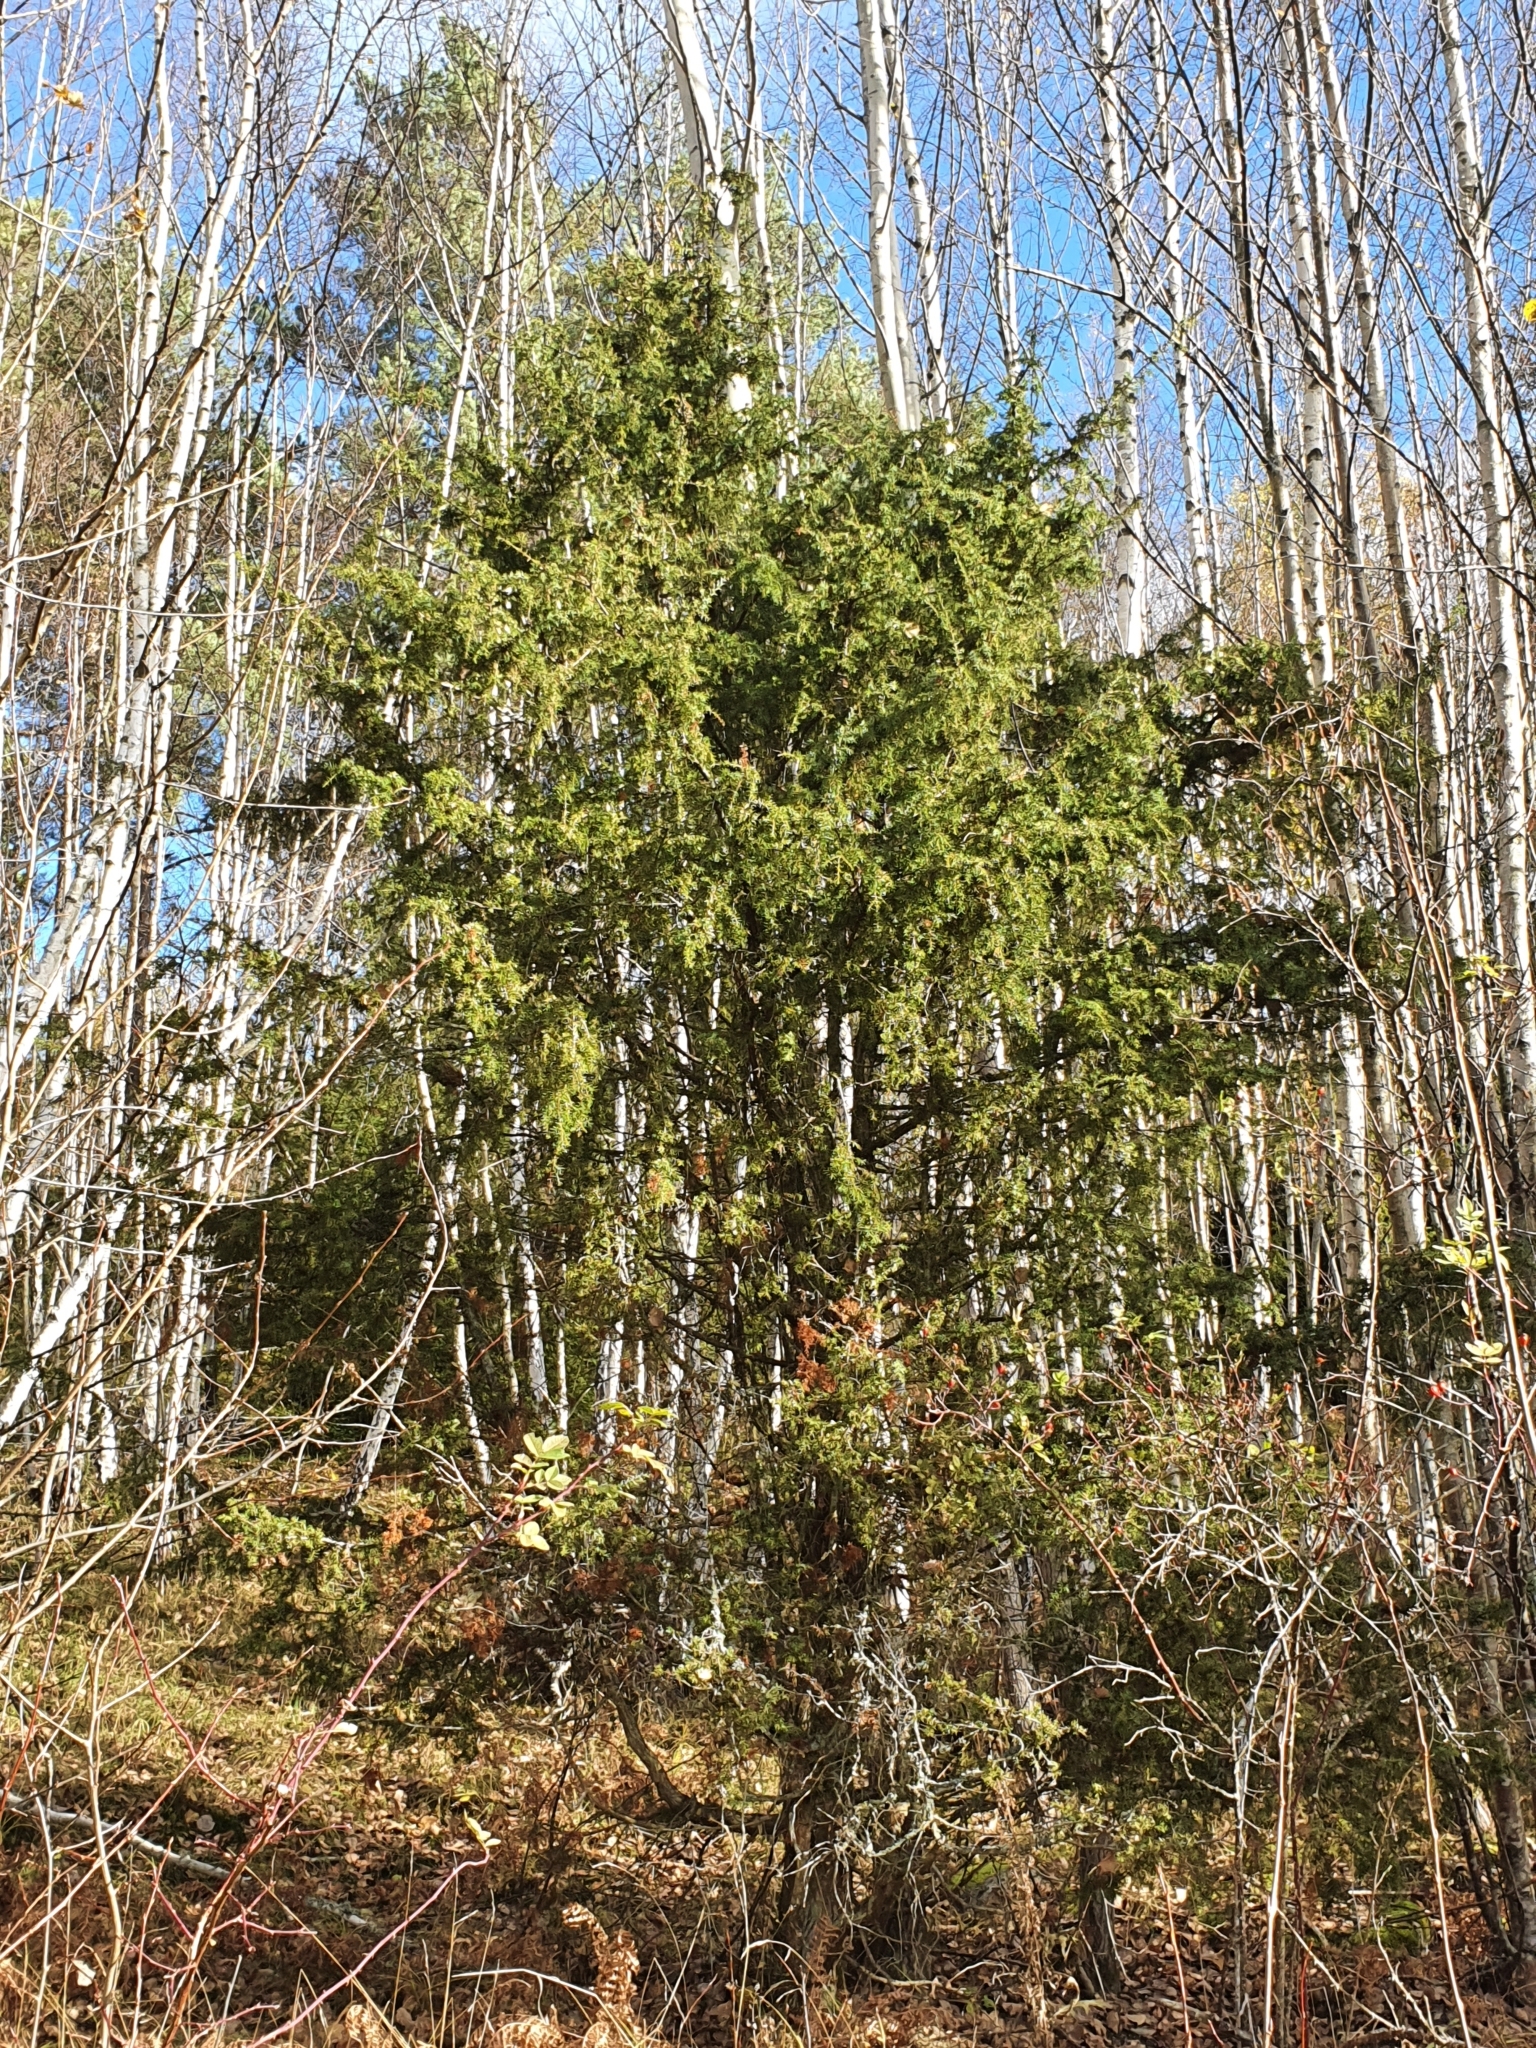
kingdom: Plantae
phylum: Tracheophyta
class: Pinopsida
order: Pinales
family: Cupressaceae
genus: Juniperus
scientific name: Juniperus communis
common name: Common juniper
